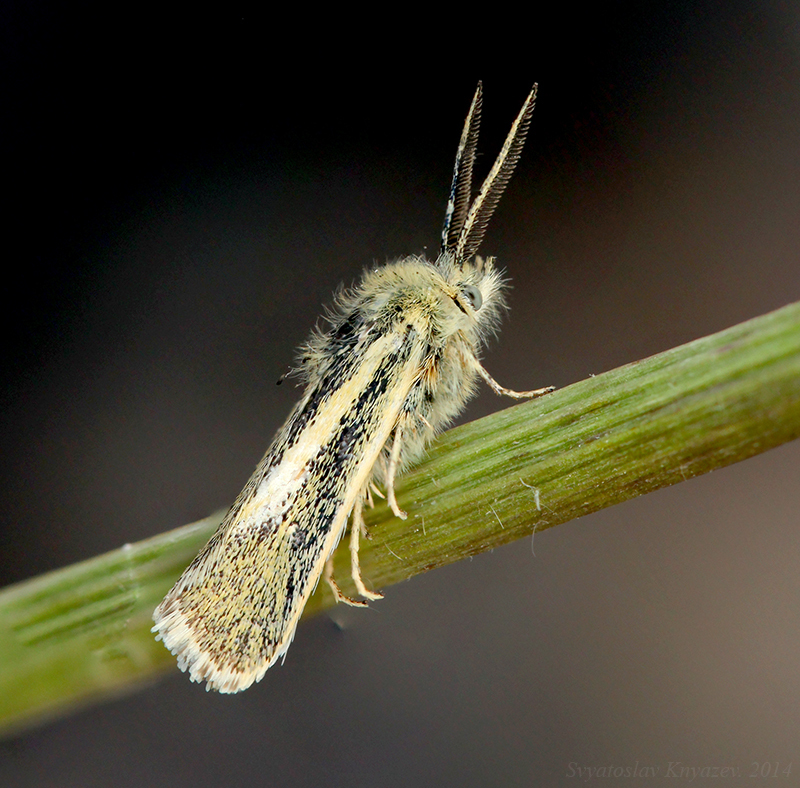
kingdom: Animalia
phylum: Arthropoda
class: Insecta
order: Lepidoptera
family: Brachodidae
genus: Atychia
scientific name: Atychia appendiculata
